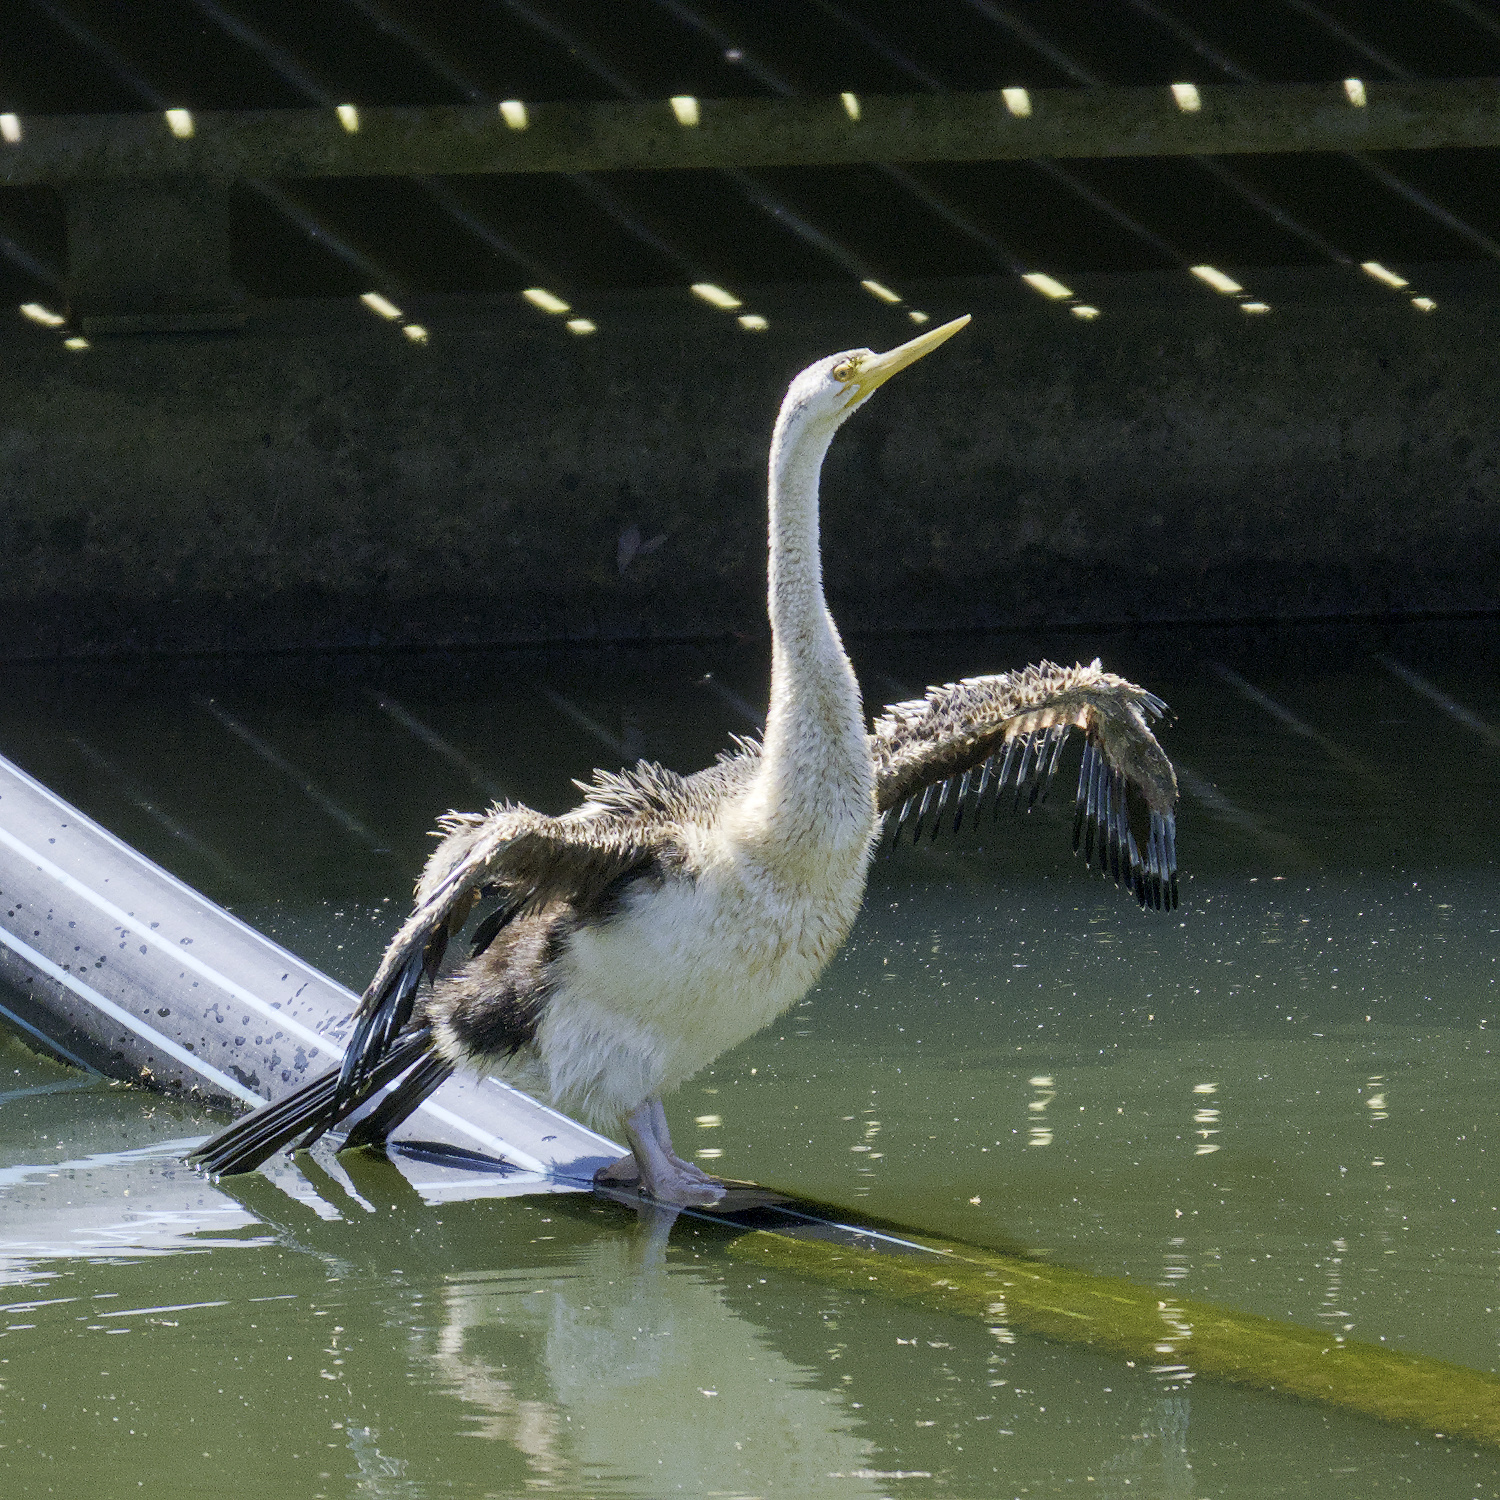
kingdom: Animalia
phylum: Chordata
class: Aves
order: Suliformes
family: Anhingidae
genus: Anhinga
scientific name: Anhinga novaehollandiae
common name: Australasian darter
